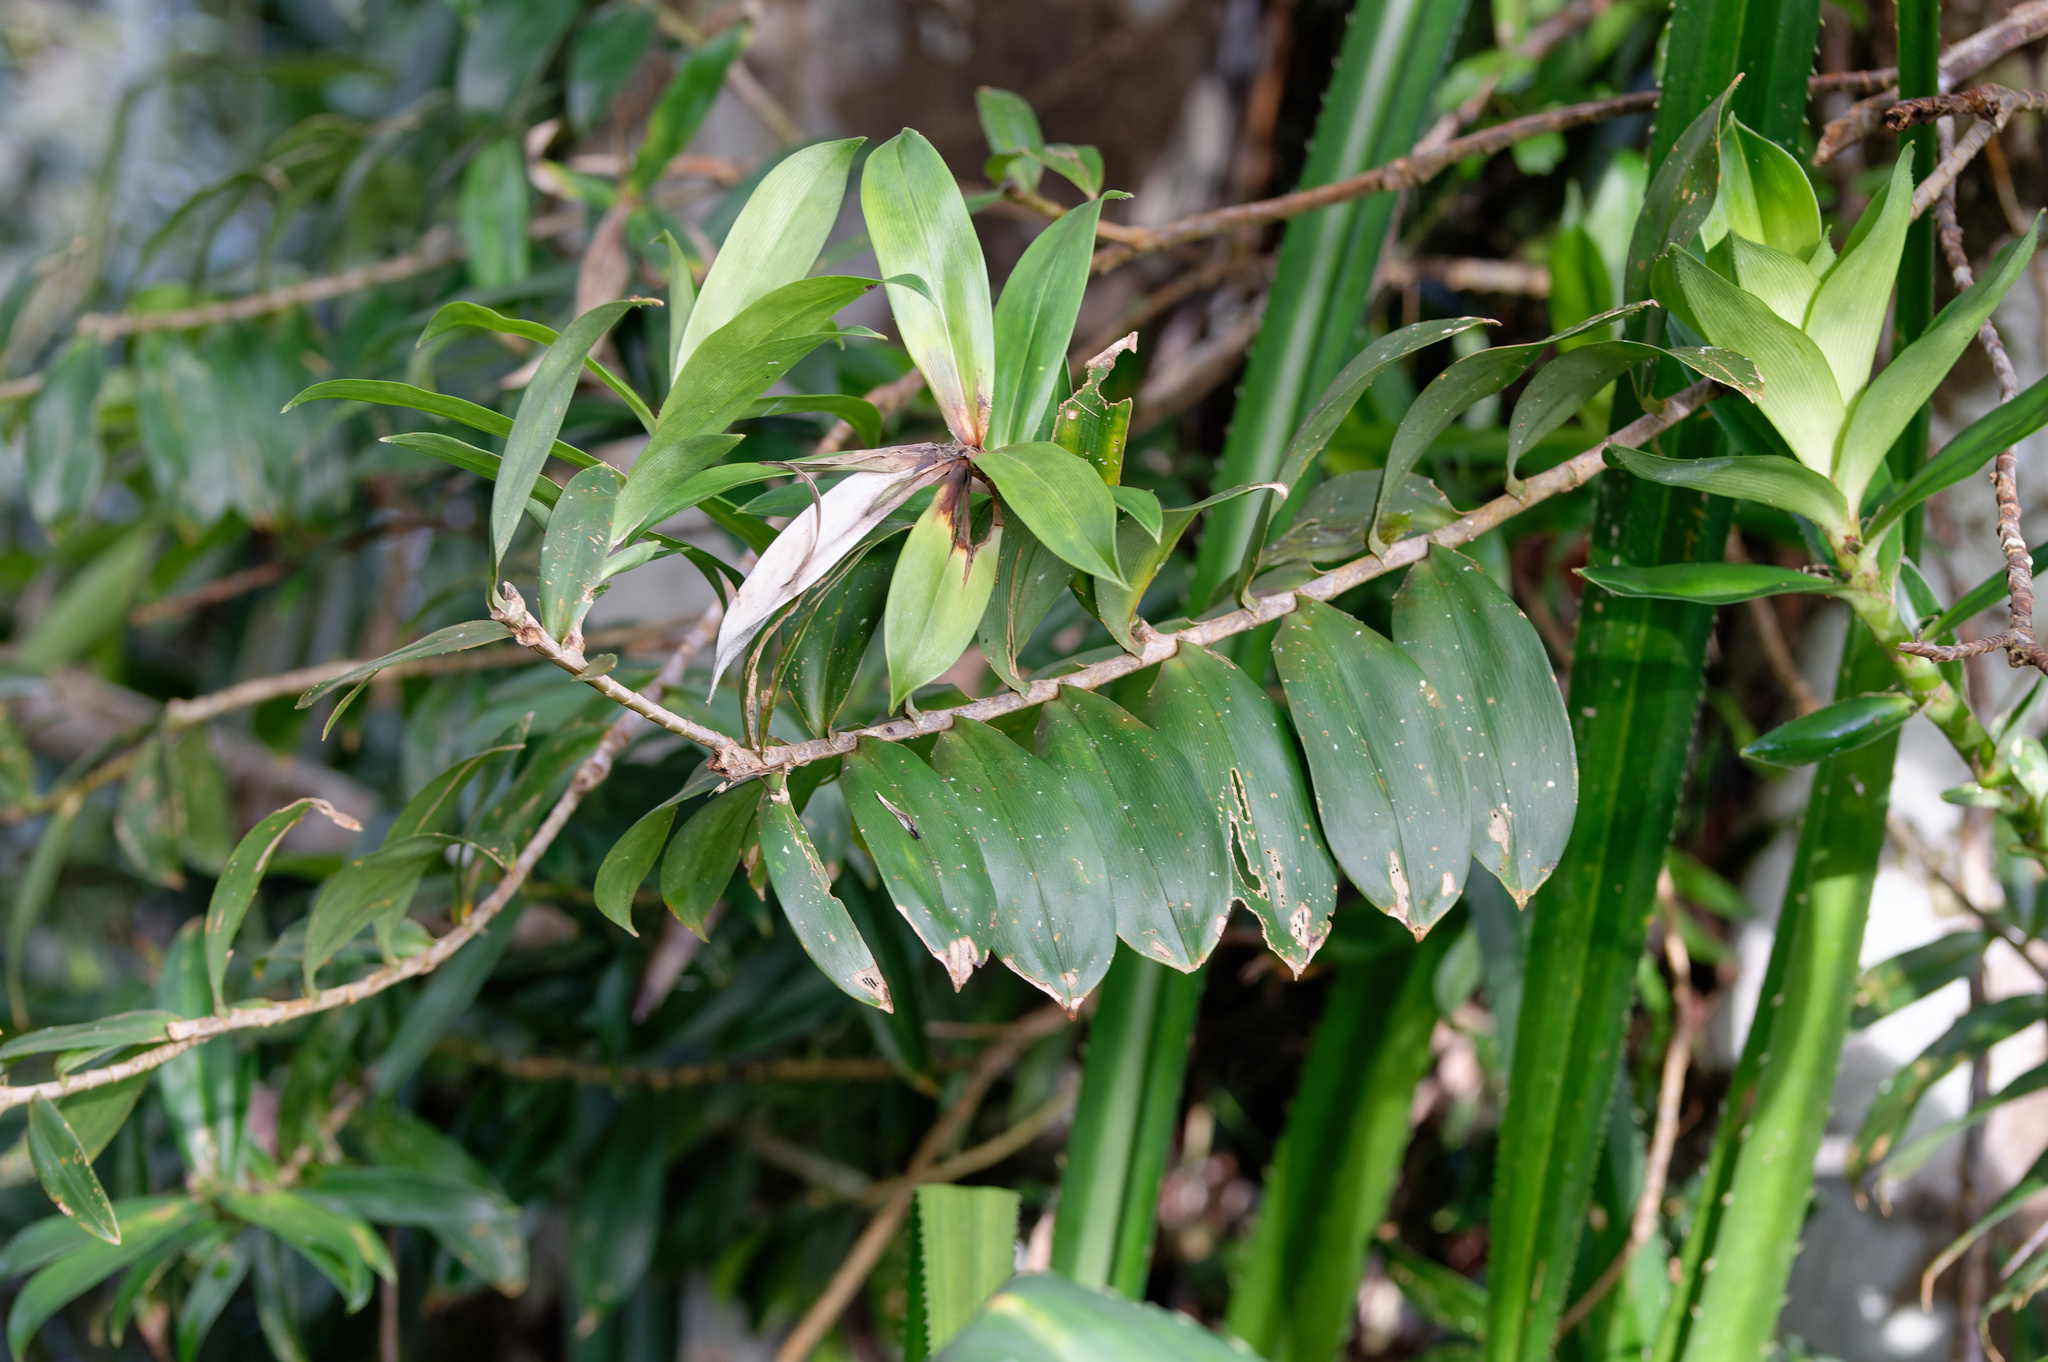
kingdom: Plantae
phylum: Tracheophyta
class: Liliopsida
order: Pandanales
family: Pandanaceae
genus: Freycinetia
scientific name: Freycinetia scandens
